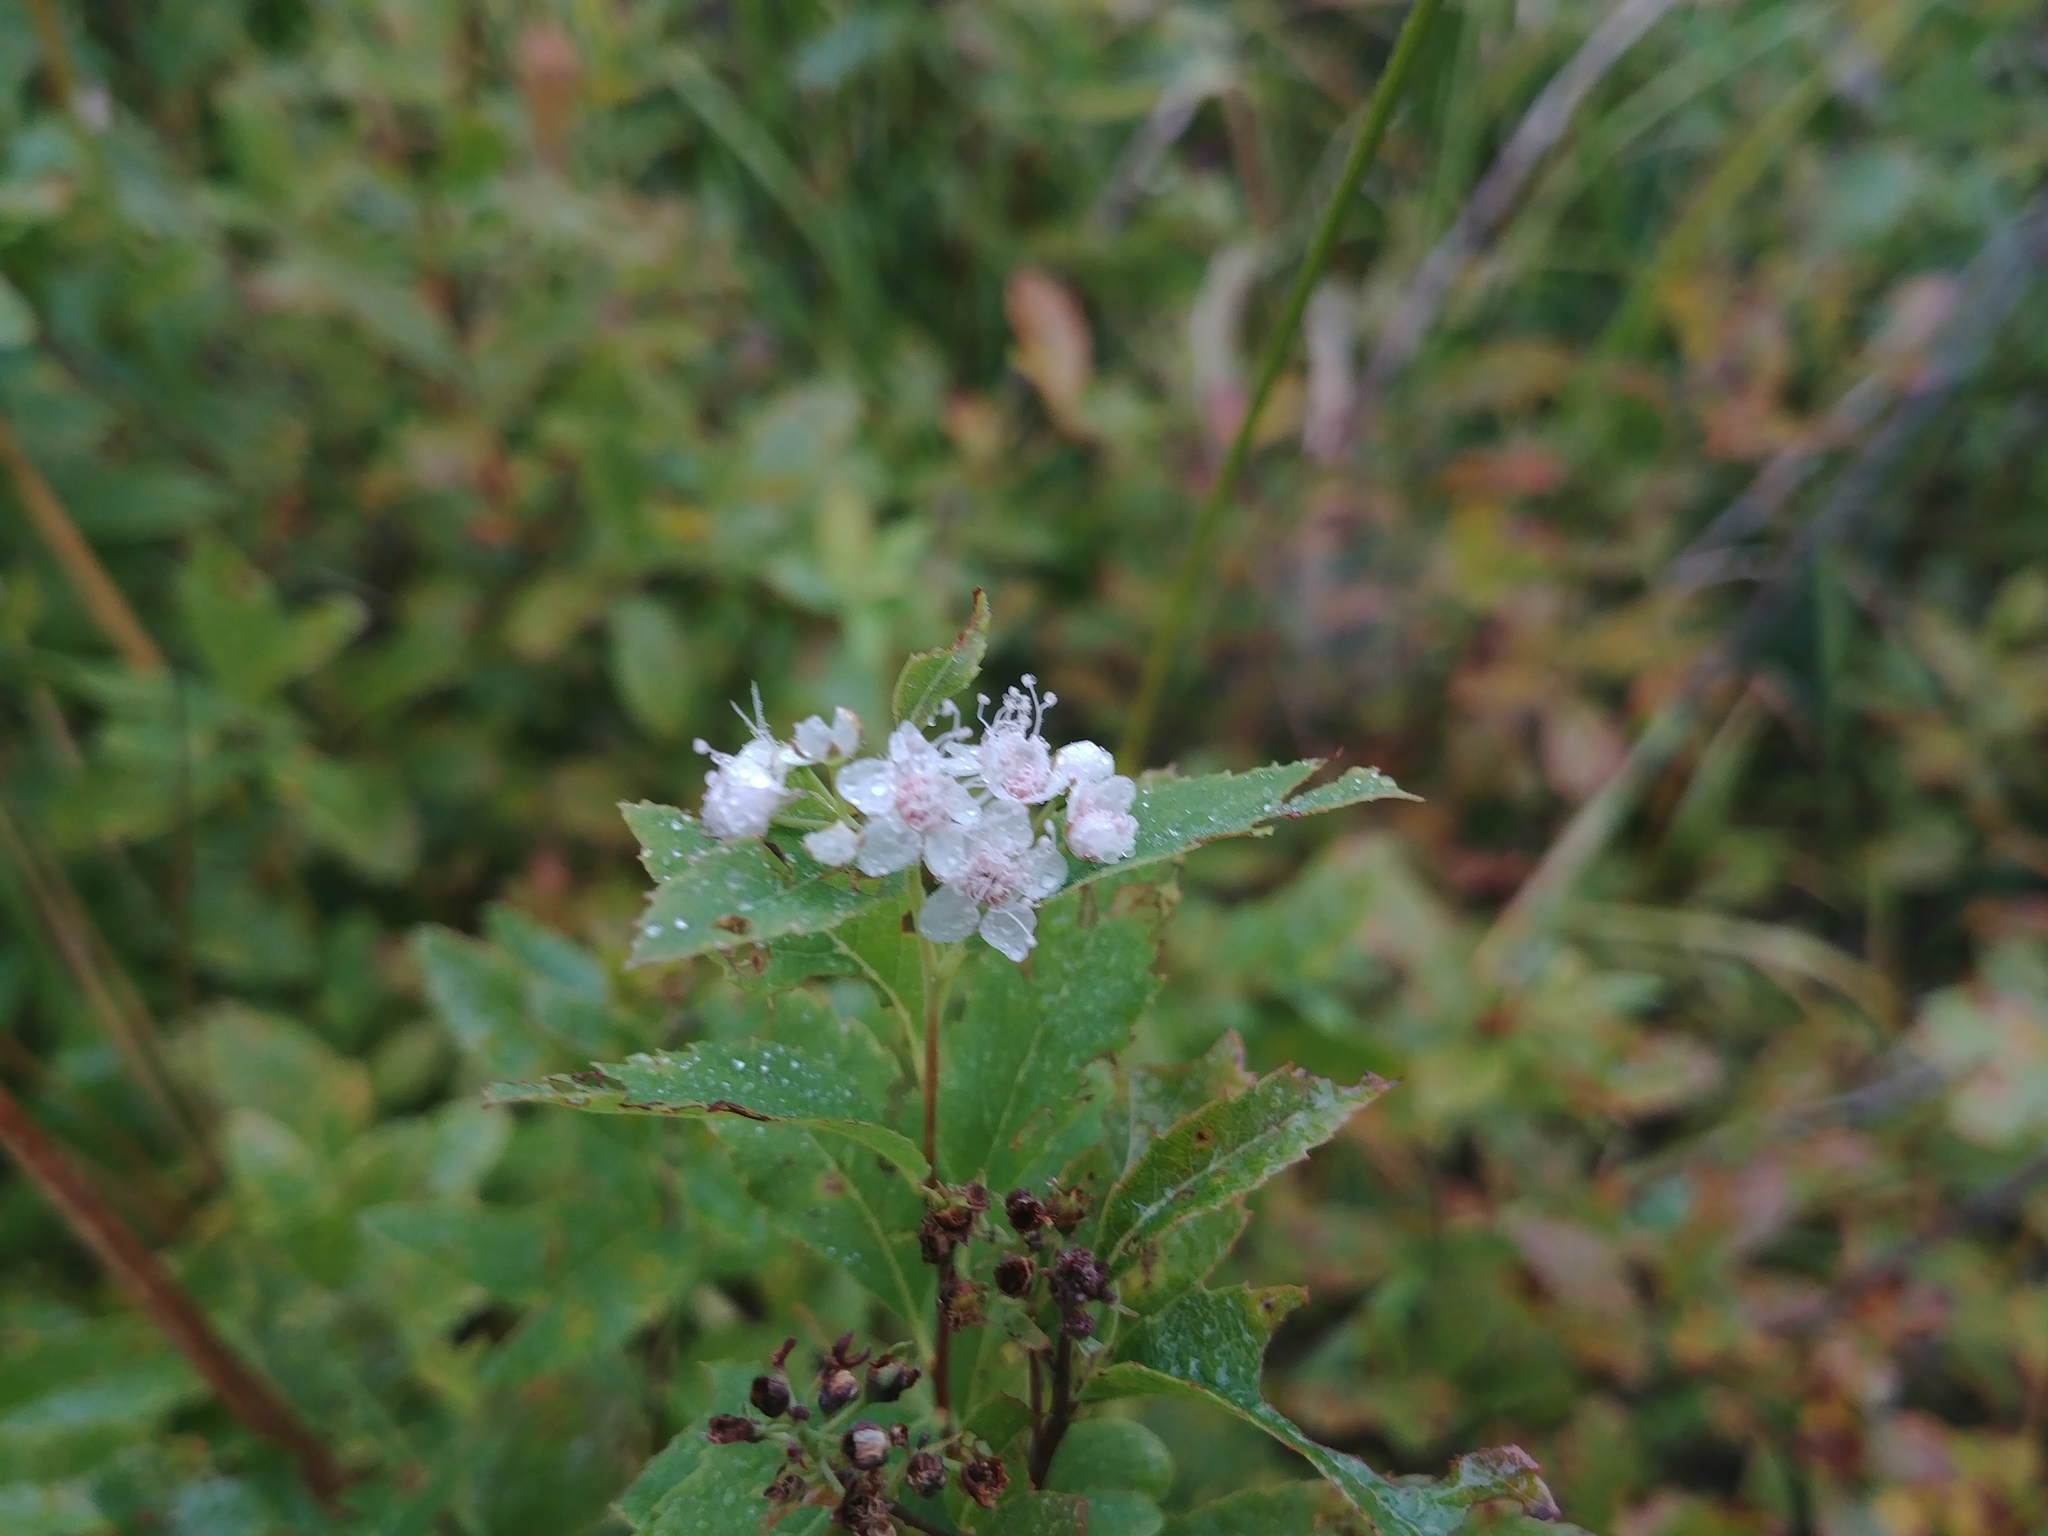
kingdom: Plantae
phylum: Tracheophyta
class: Magnoliopsida
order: Rosales
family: Rosaceae
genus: Spiraea
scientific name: Spiraea alba
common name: Pale bridewort
